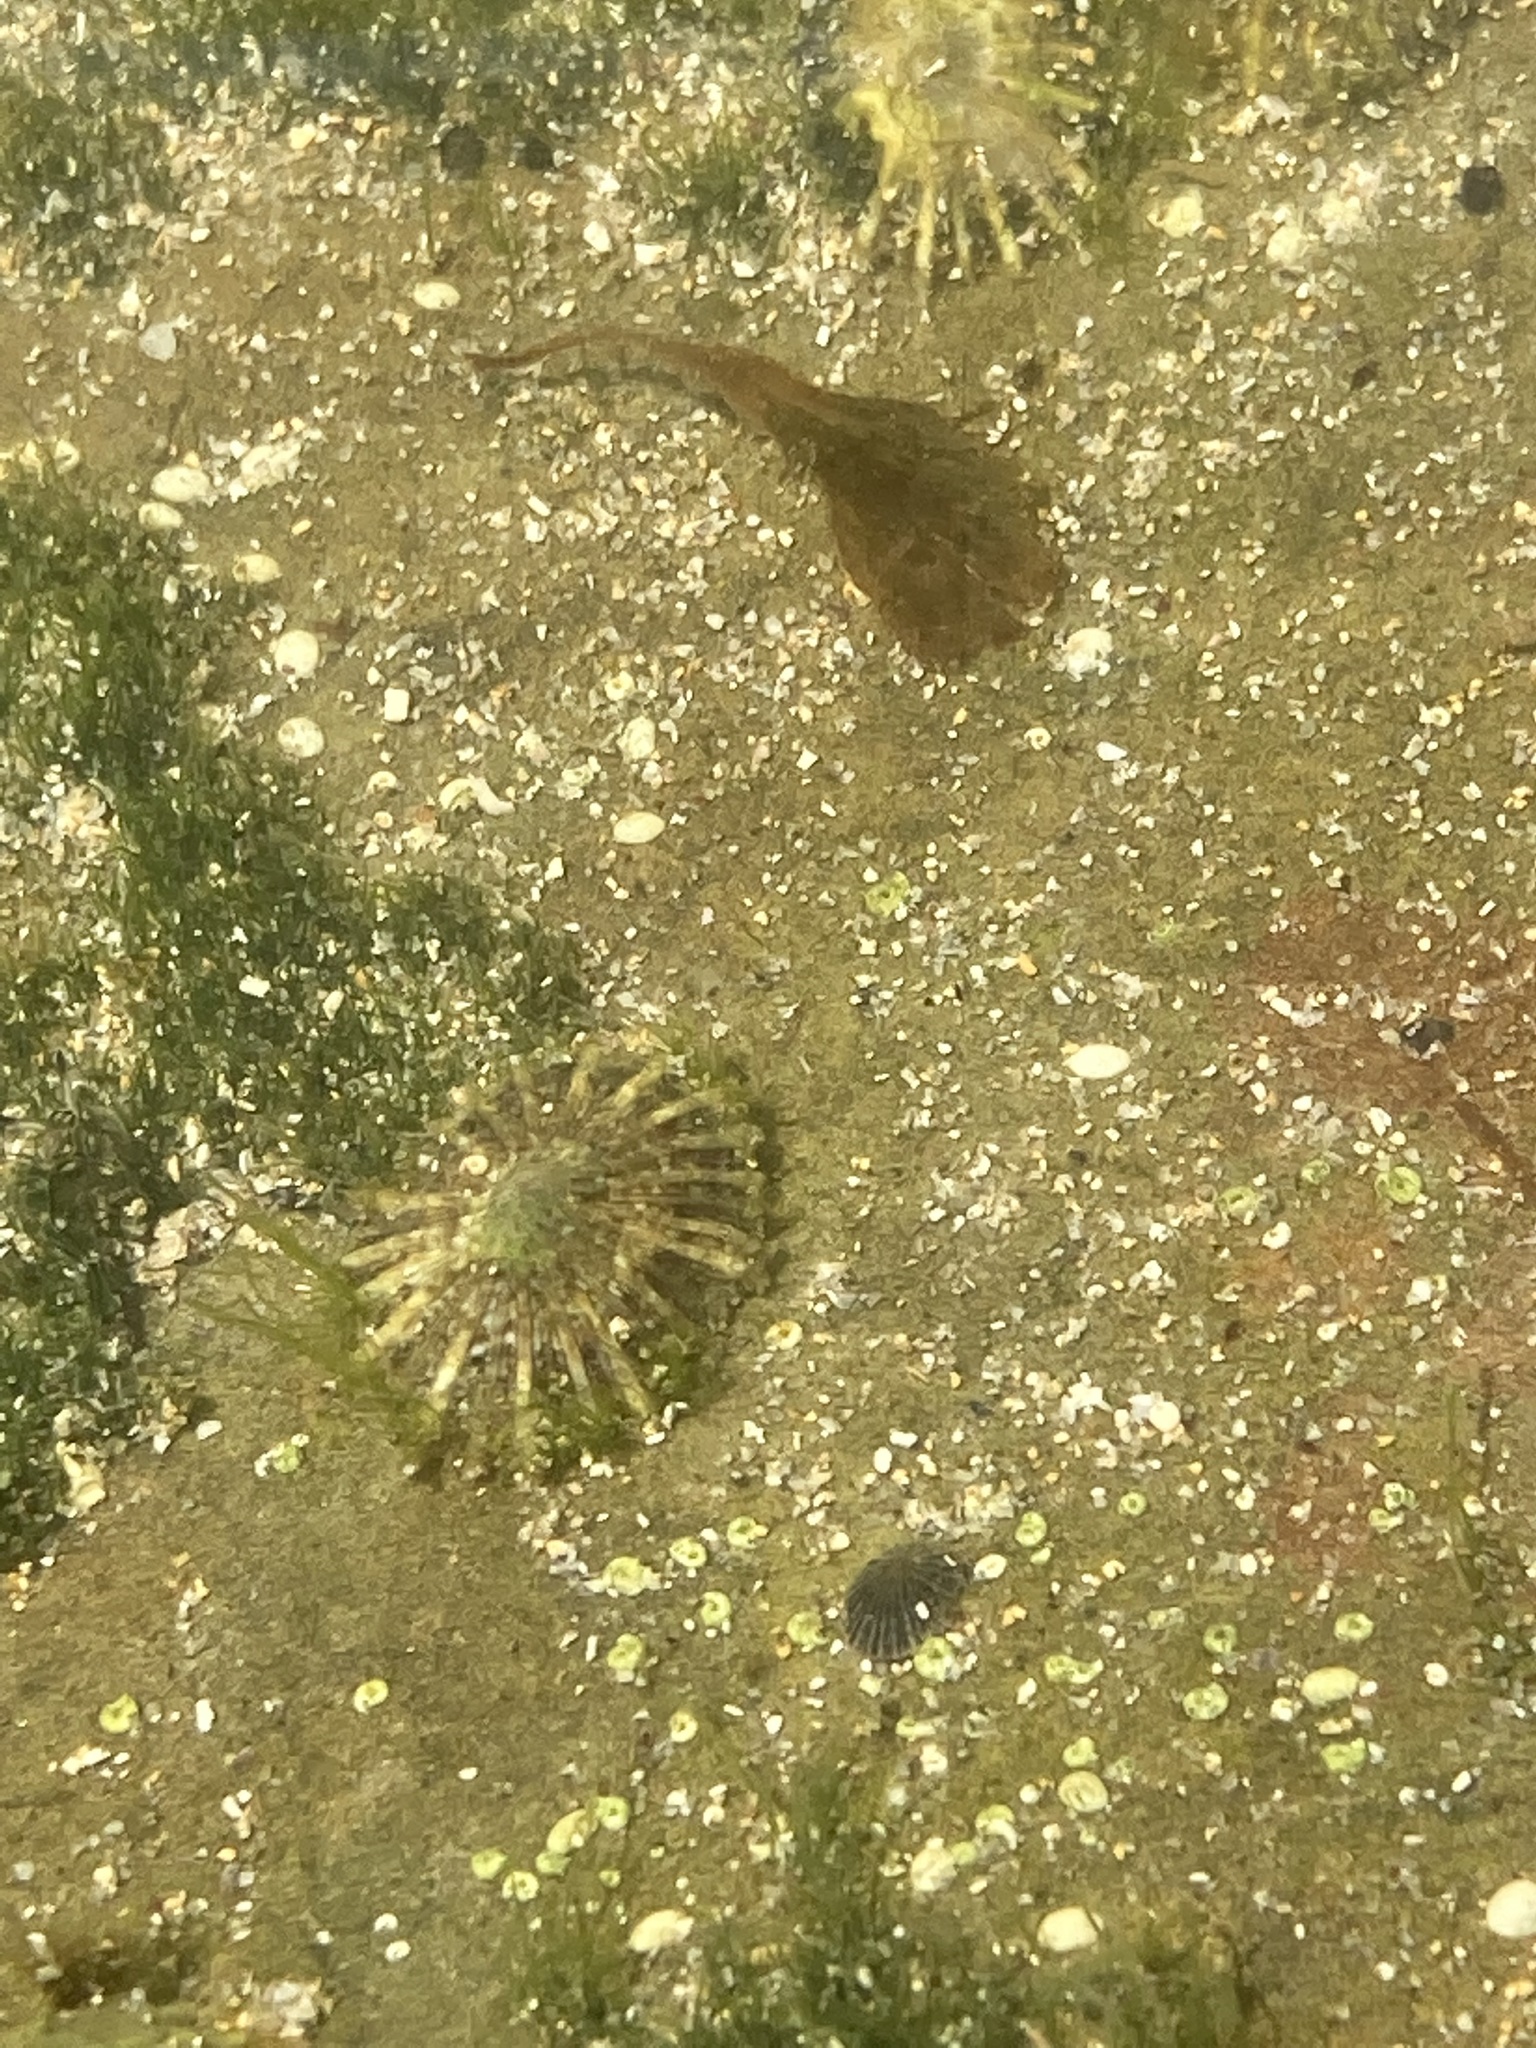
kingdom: Animalia
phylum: Mollusca
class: Gastropoda
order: Siphonariida
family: Siphonariidae
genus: Siphonaria
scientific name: Siphonaria denticulata
